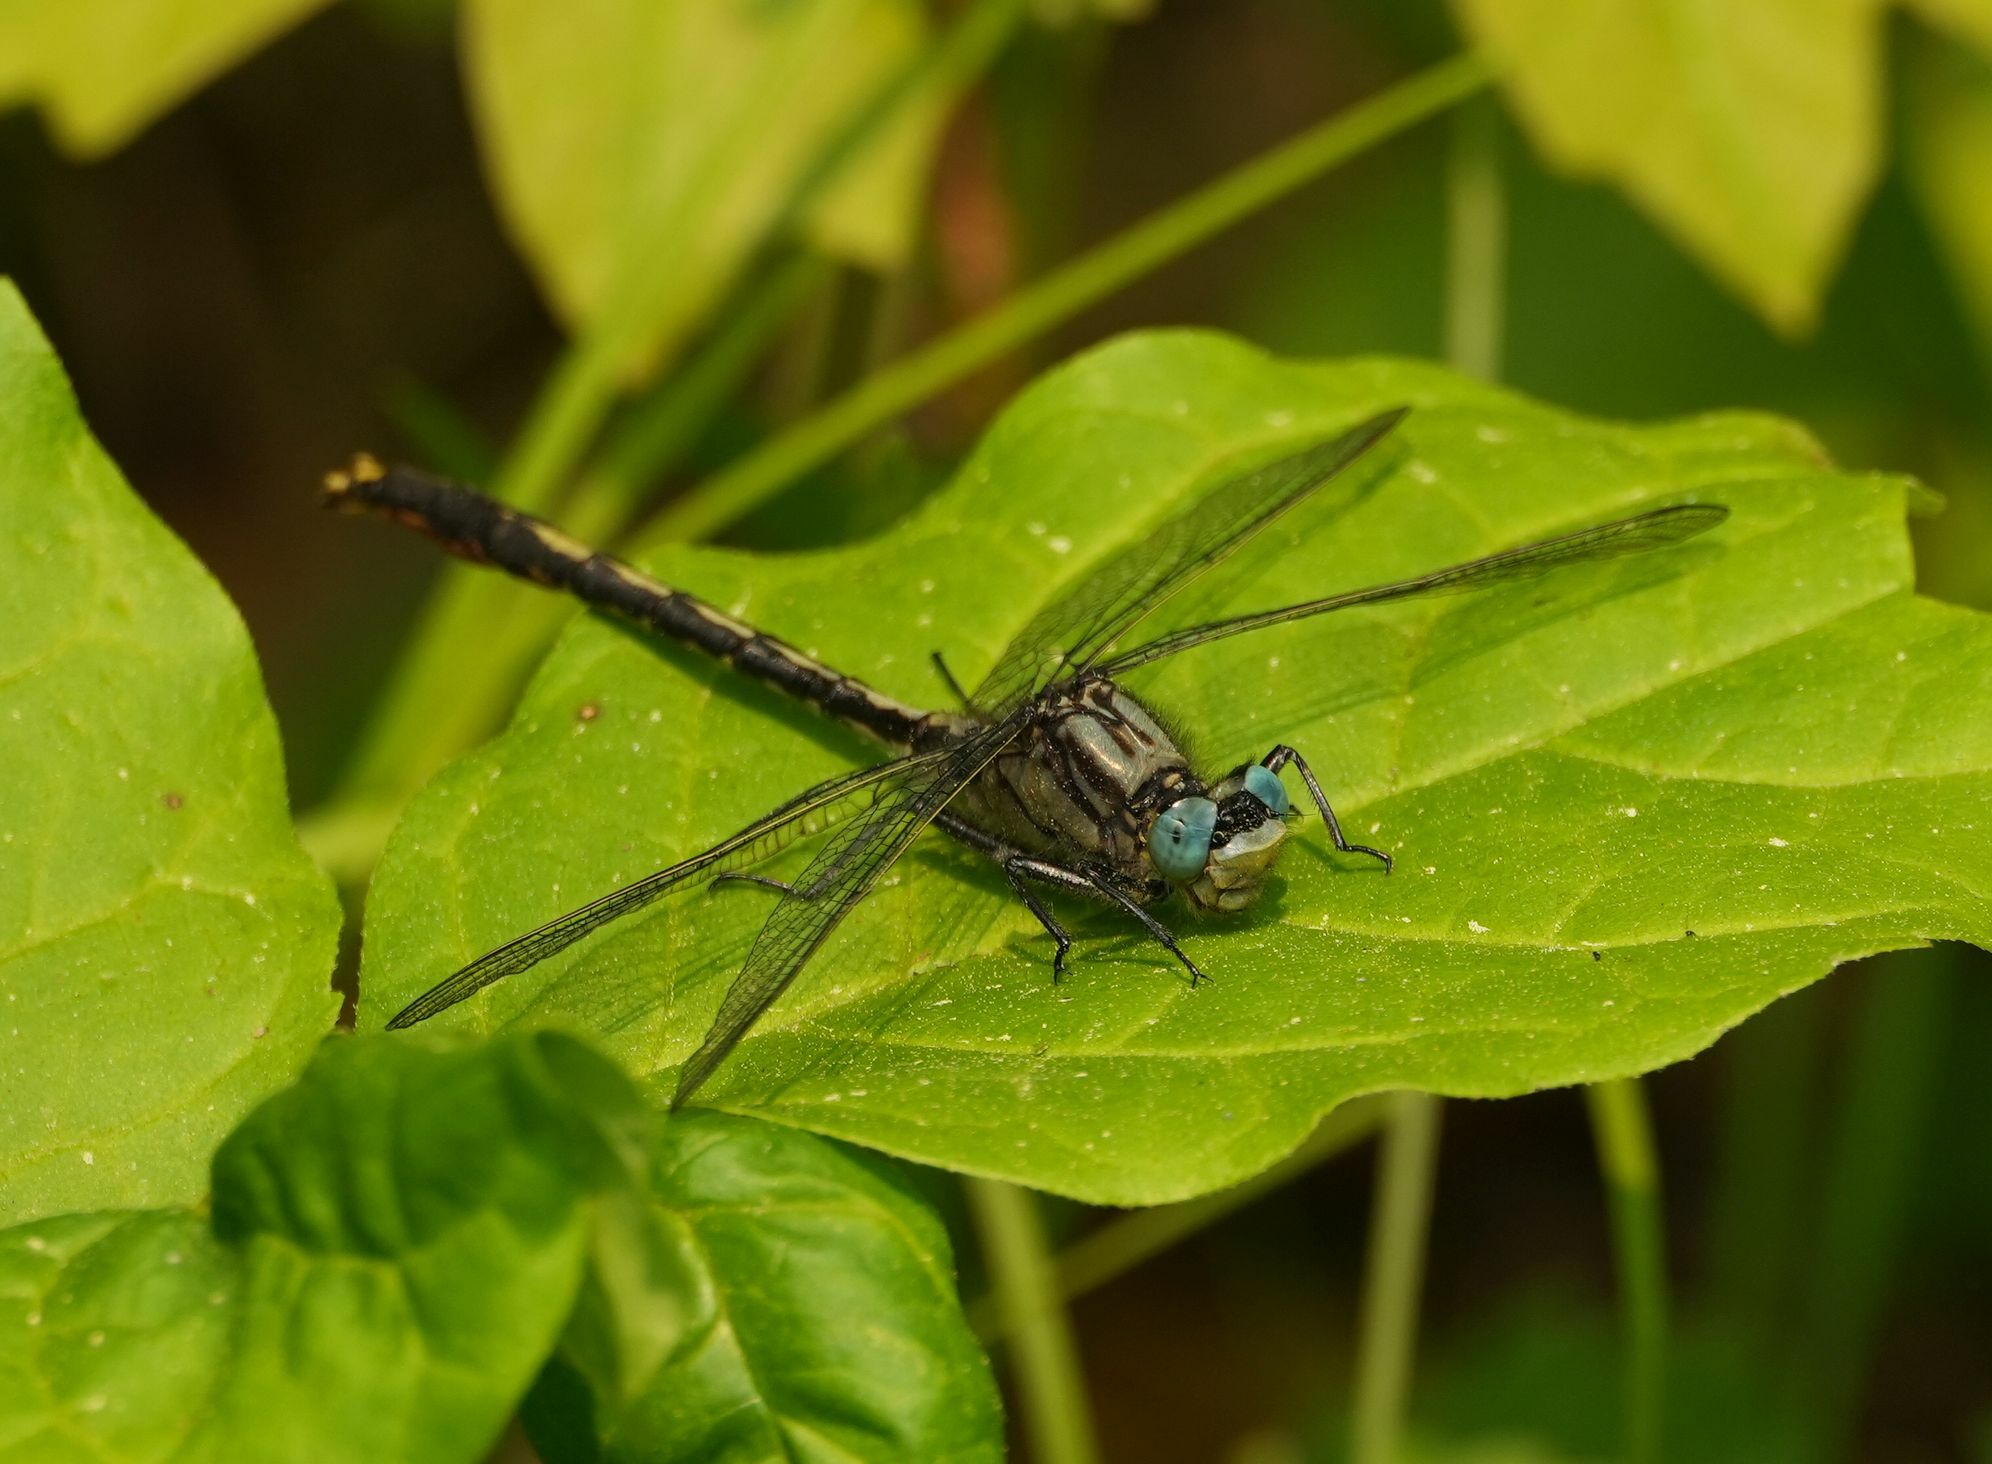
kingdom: Animalia
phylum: Arthropoda
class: Insecta
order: Odonata
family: Gomphidae
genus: Arigomphus
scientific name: Arigomphus furcifer
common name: Lilypad clubtail
